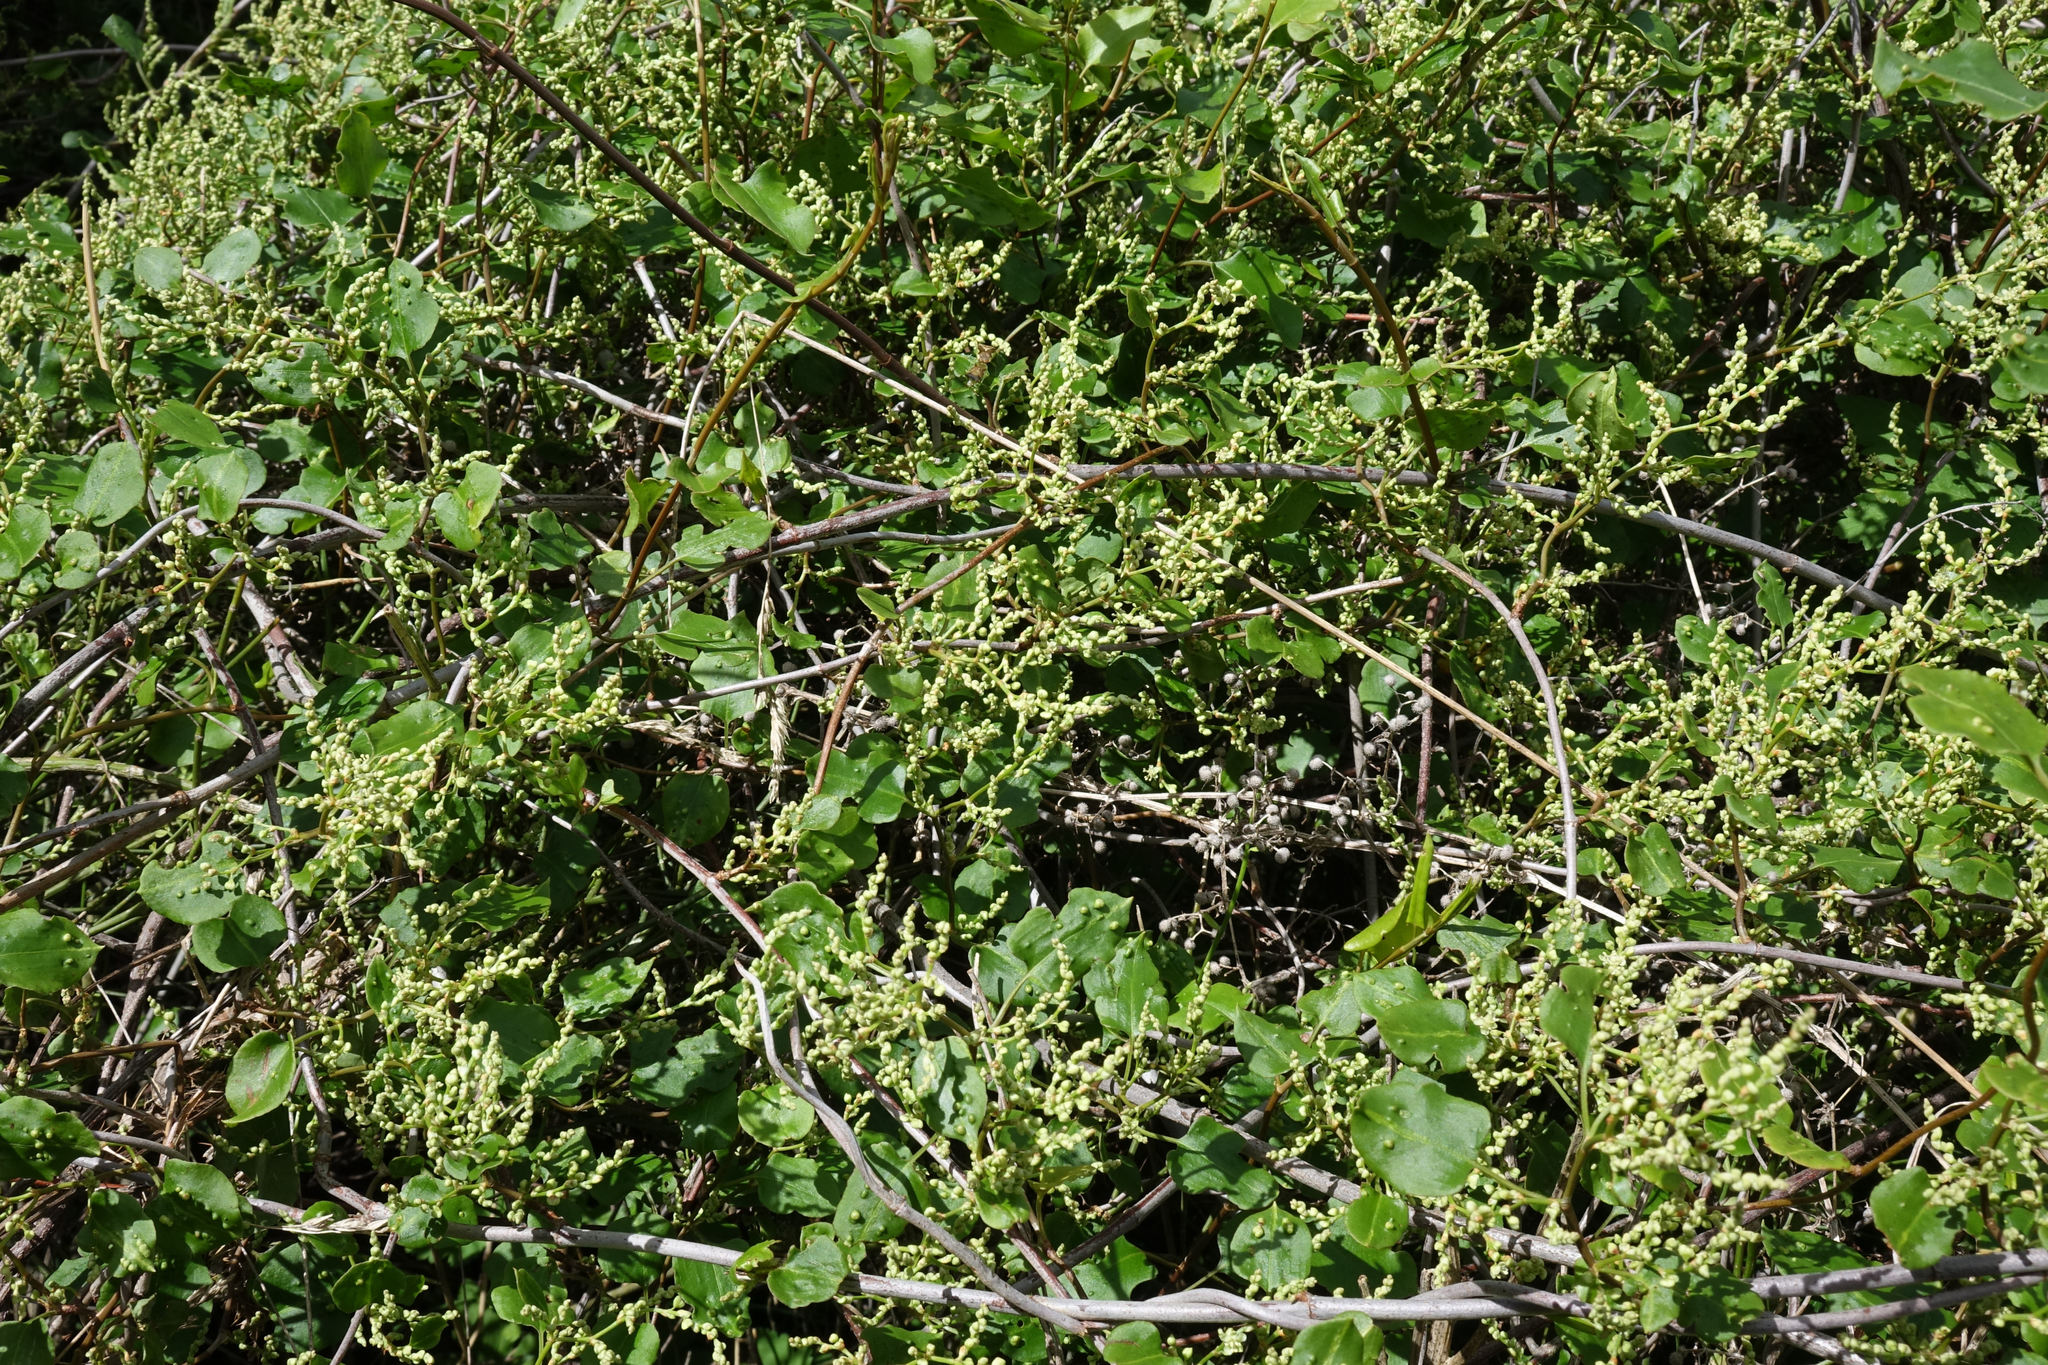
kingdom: Plantae
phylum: Tracheophyta
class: Magnoliopsida
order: Caryophyllales
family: Polygonaceae
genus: Muehlenbeckia
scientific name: Muehlenbeckia australis
